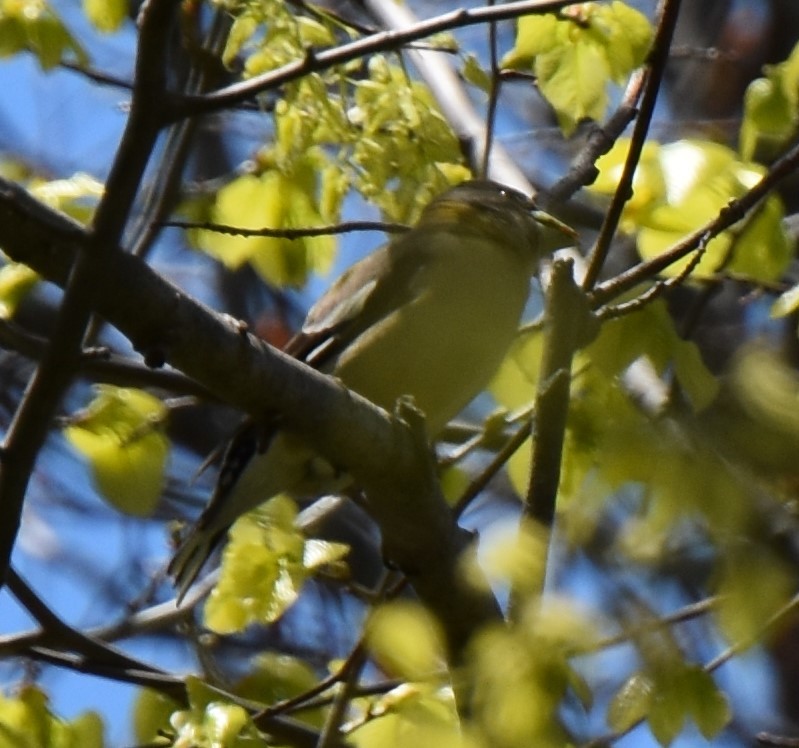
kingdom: Animalia
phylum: Chordata
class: Aves
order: Passeriformes
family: Fringillidae
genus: Hesperiphona
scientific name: Hesperiphona vespertina
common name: Evening grosbeak
